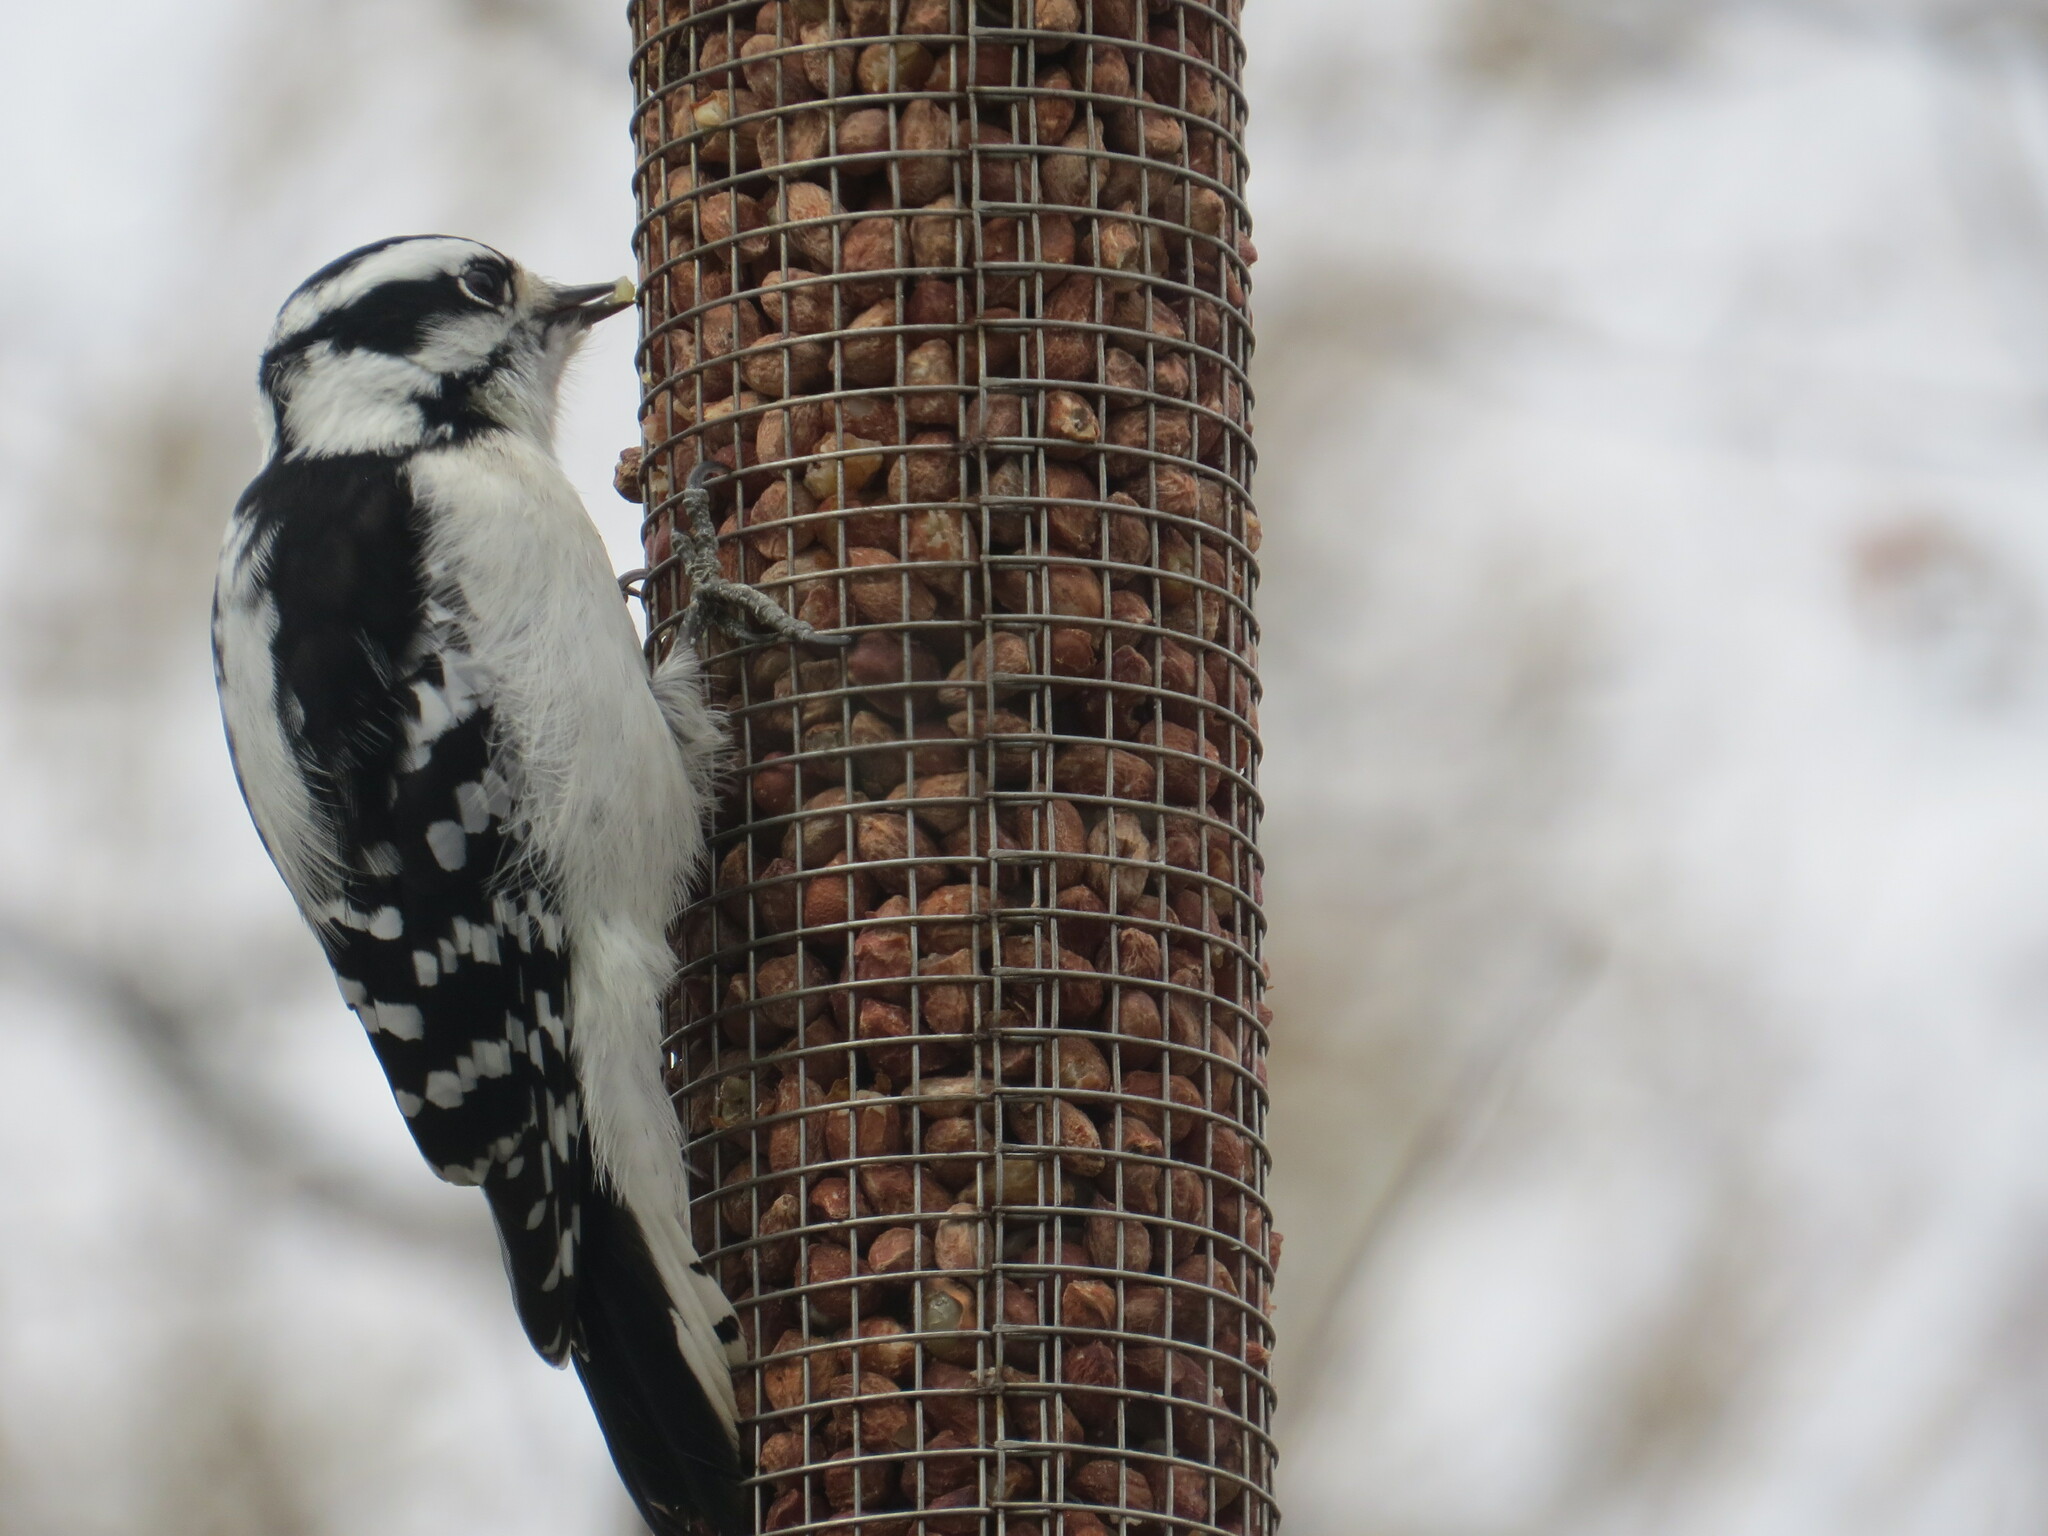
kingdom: Animalia
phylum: Chordata
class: Aves
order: Piciformes
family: Picidae
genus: Dryobates
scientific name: Dryobates pubescens
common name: Downy woodpecker
